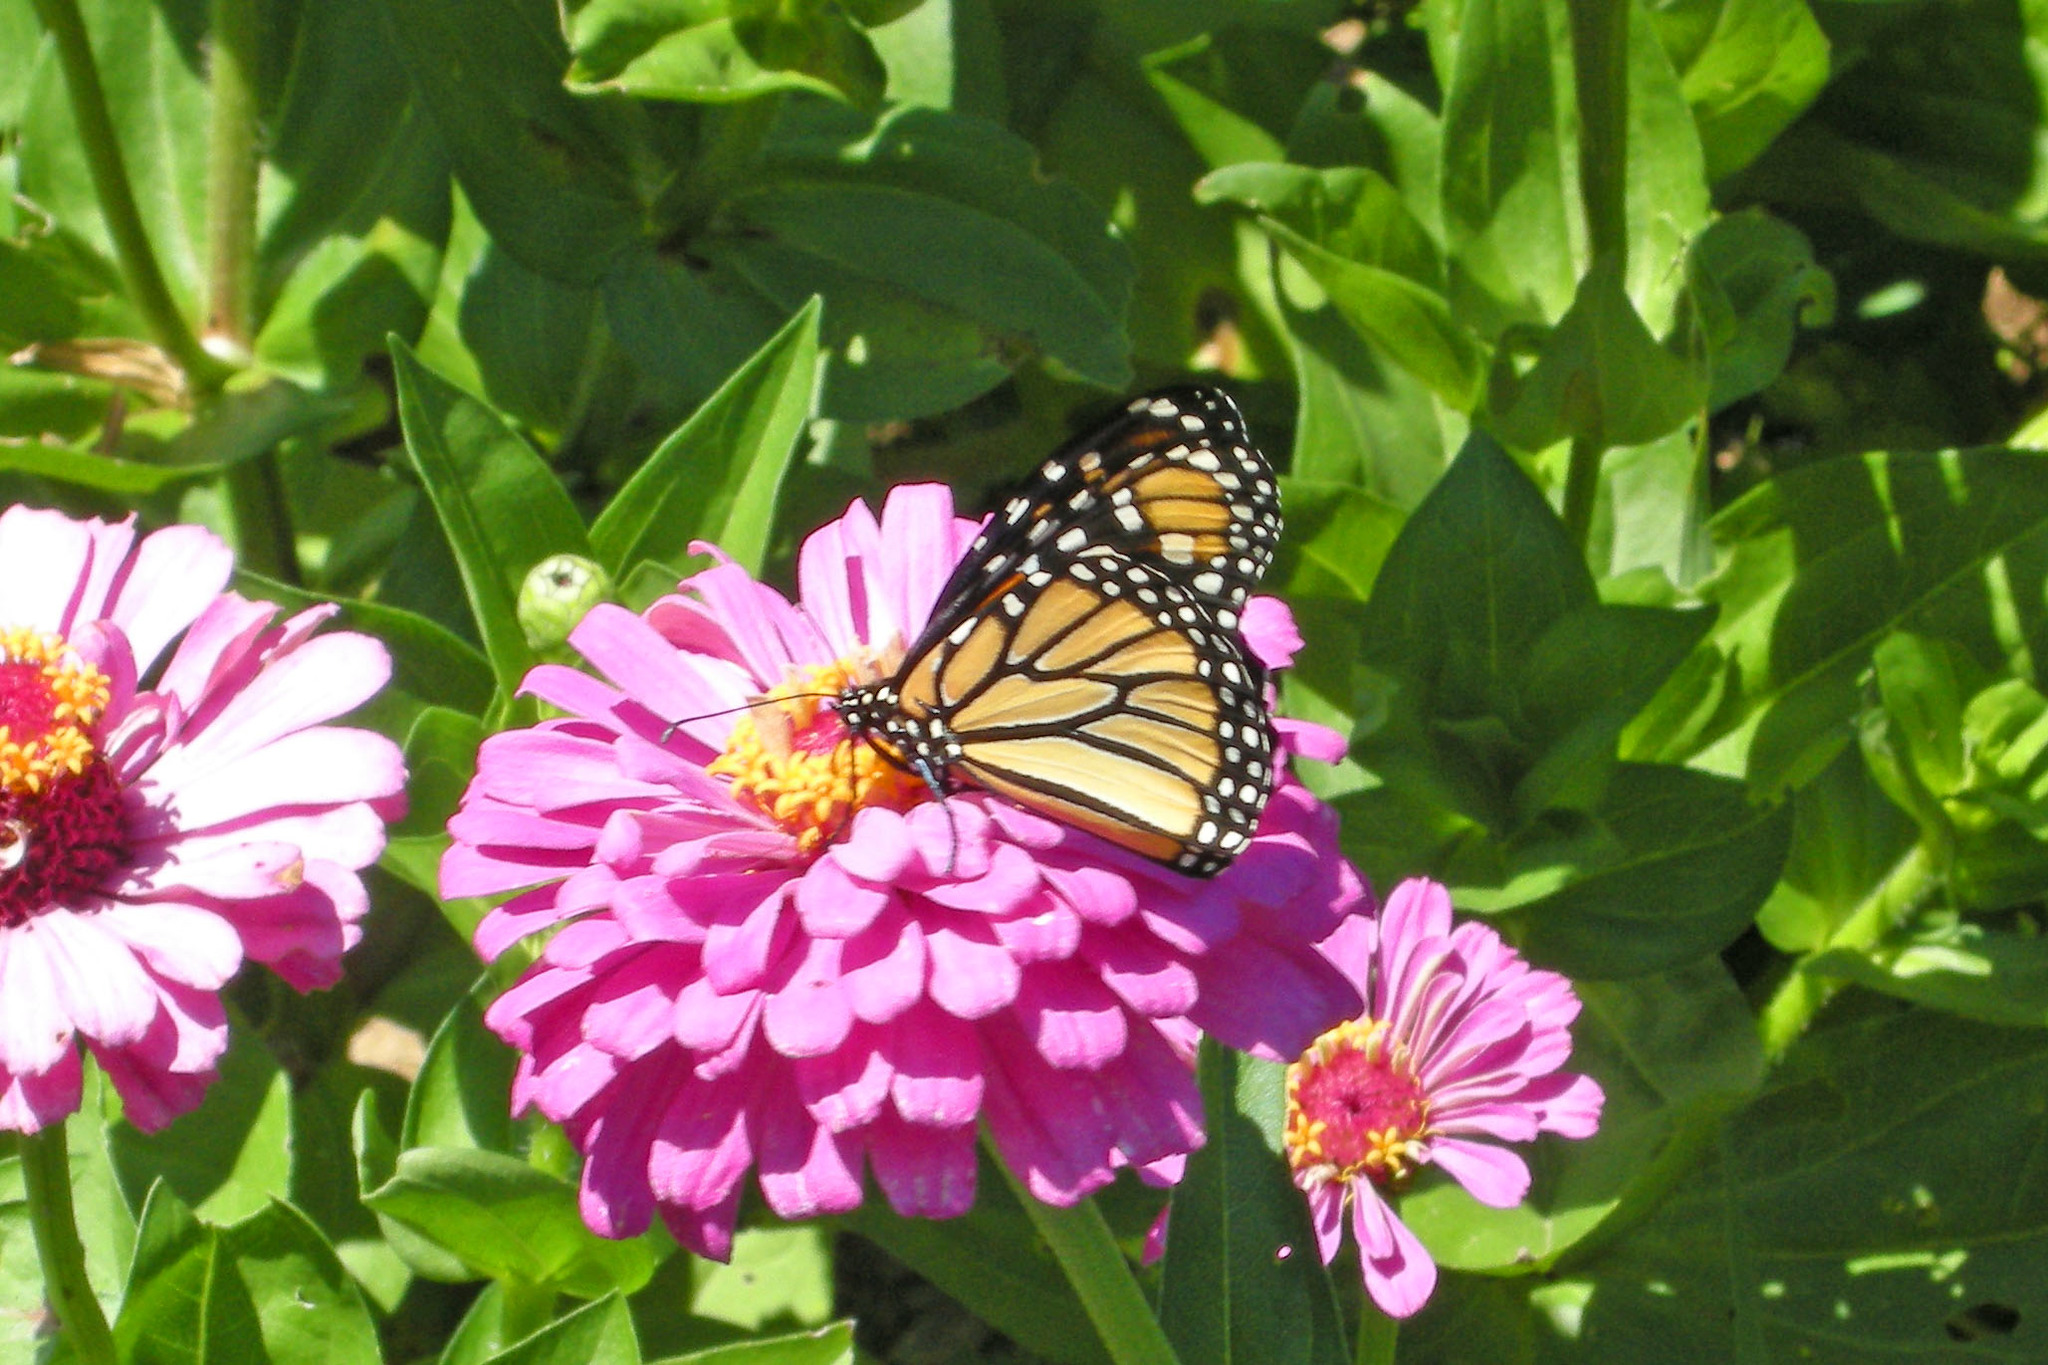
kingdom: Animalia
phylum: Arthropoda
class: Insecta
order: Lepidoptera
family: Nymphalidae
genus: Danaus
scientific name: Danaus plexippus
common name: Monarch
